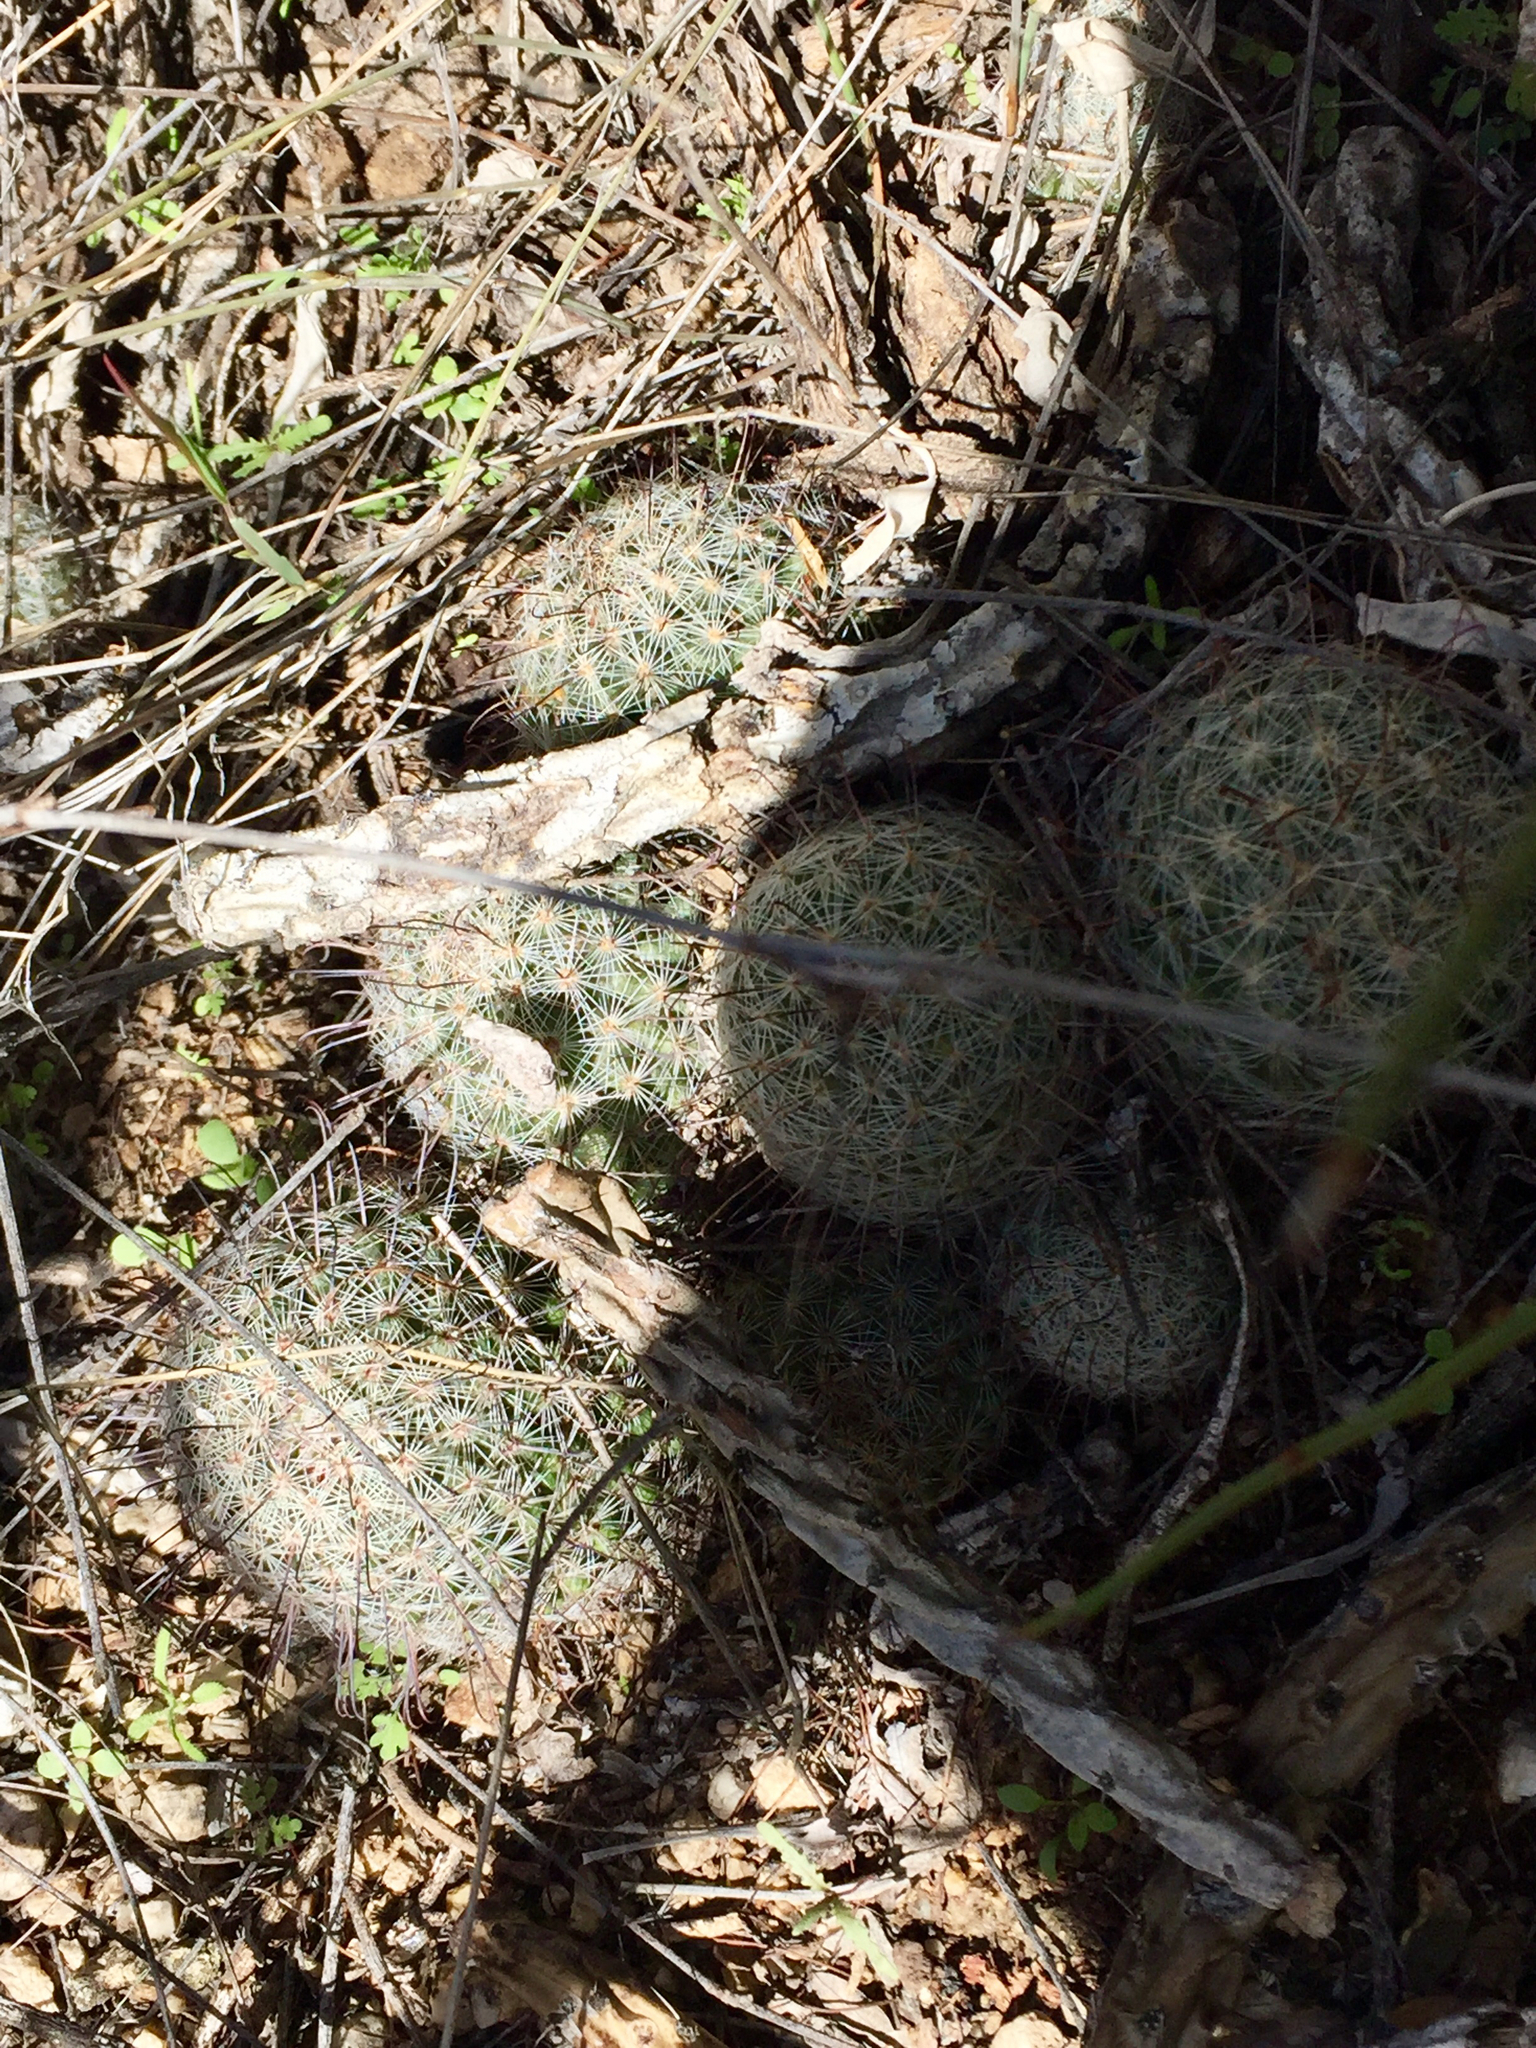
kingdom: Plantae
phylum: Tracheophyta
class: Magnoliopsida
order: Caryophyllales
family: Cactaceae
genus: Cochemiea
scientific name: Cochemiea grahamii
